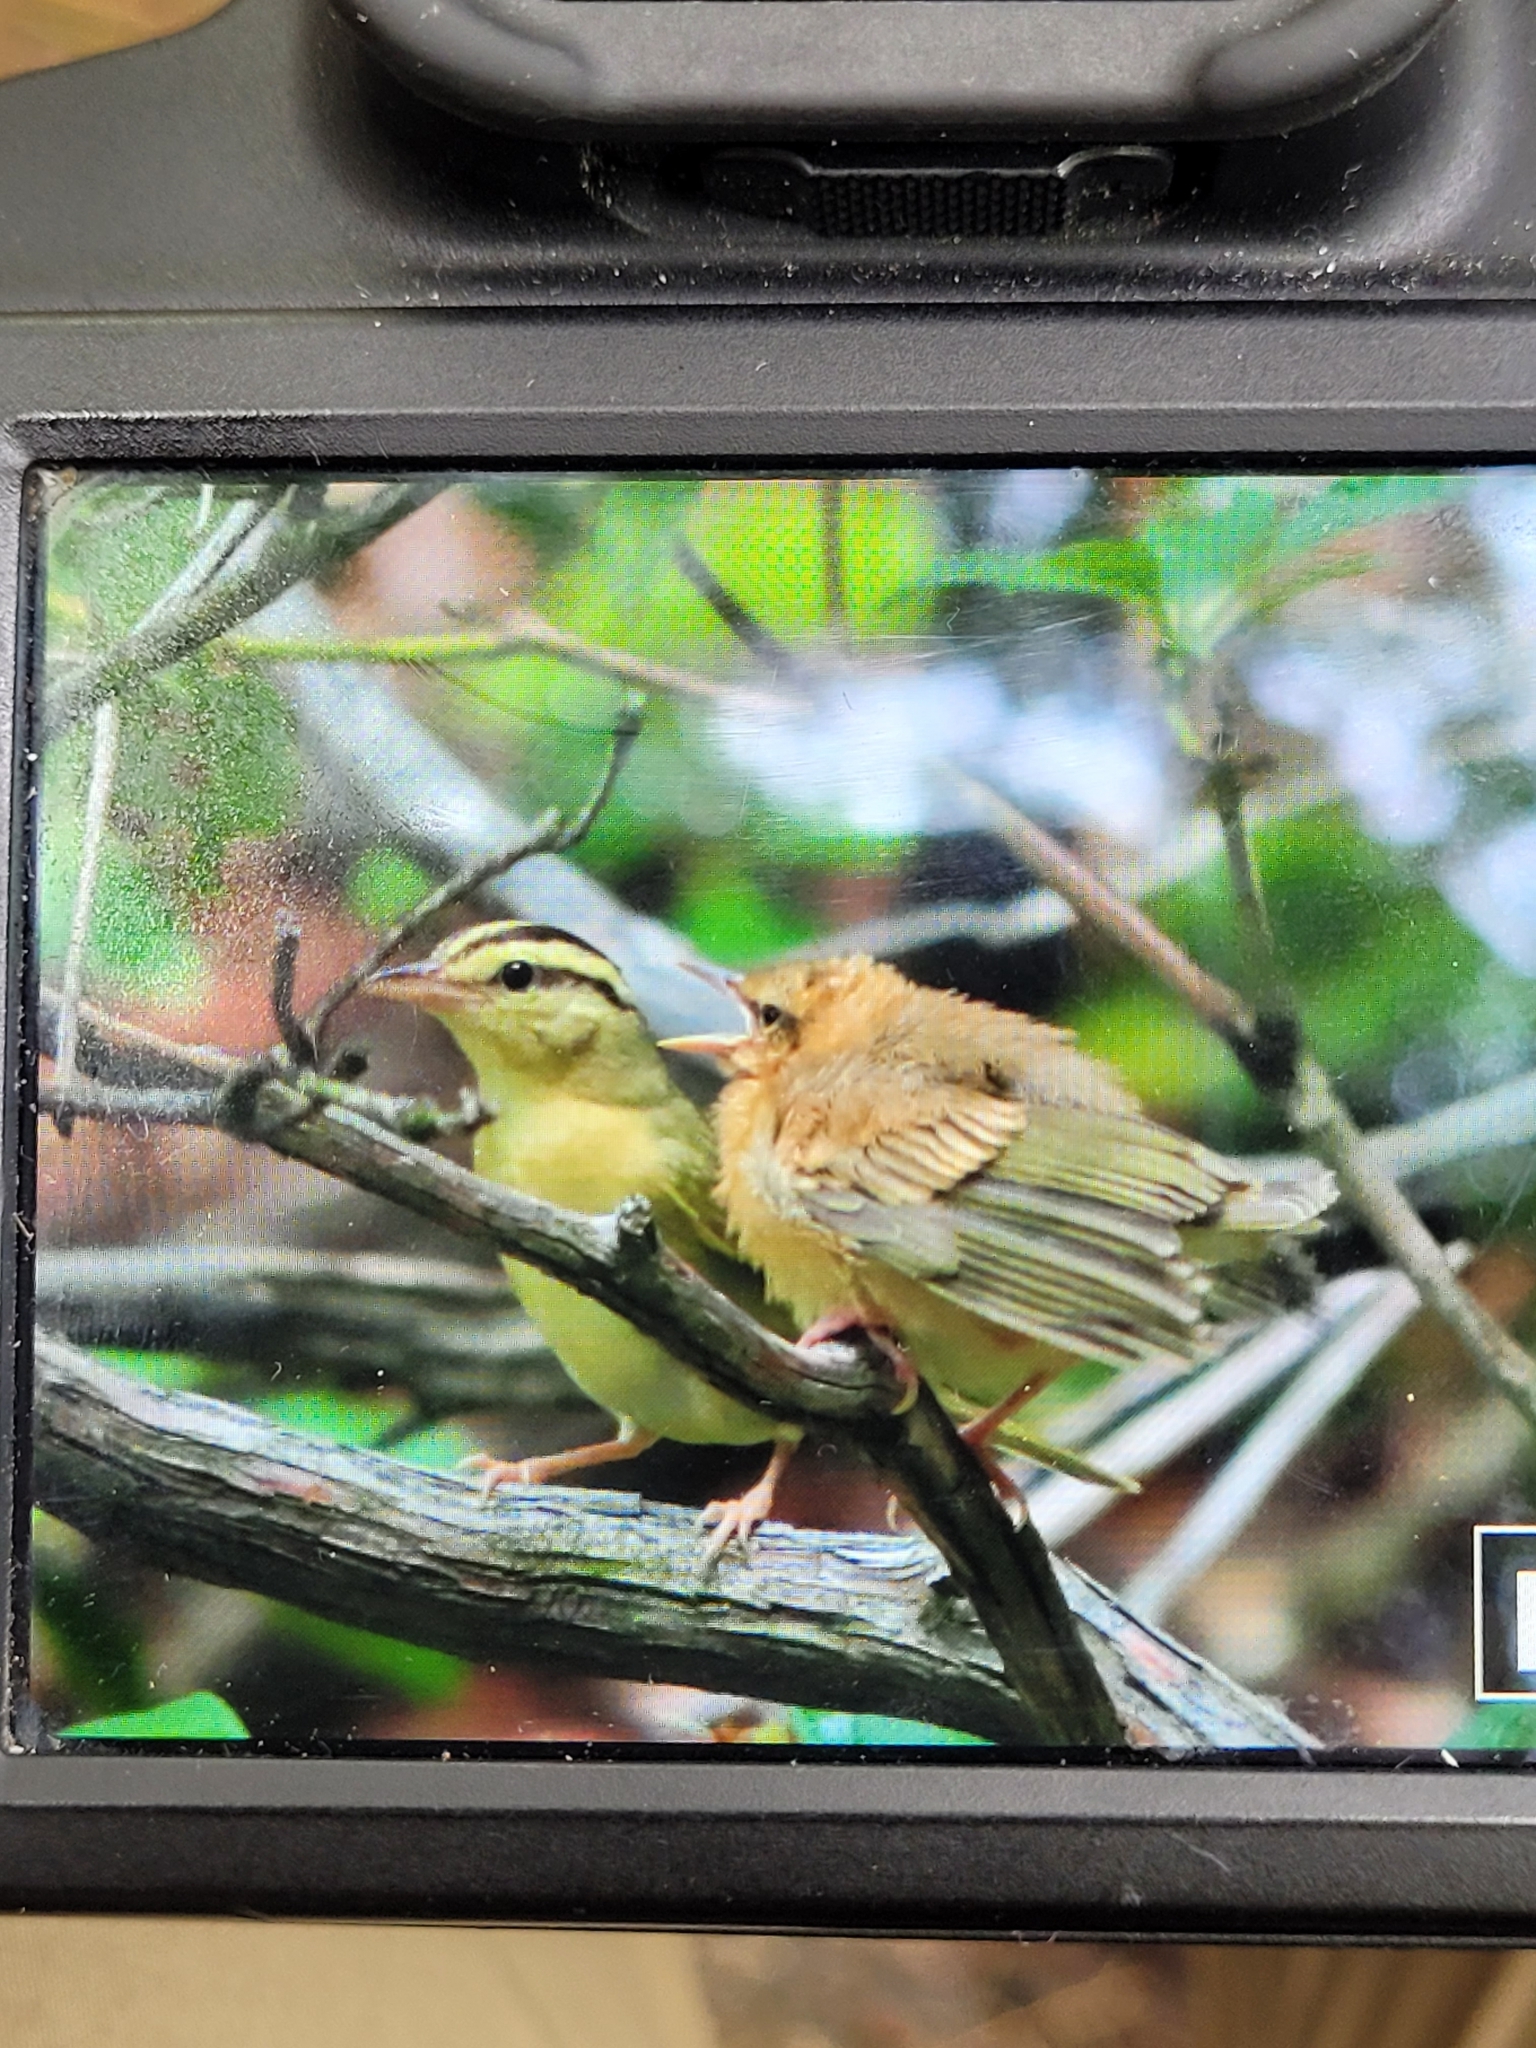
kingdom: Animalia
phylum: Chordata
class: Aves
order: Passeriformes
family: Parulidae
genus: Helmitheros
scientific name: Helmitheros vermivorum
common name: Worm-eating warbler
